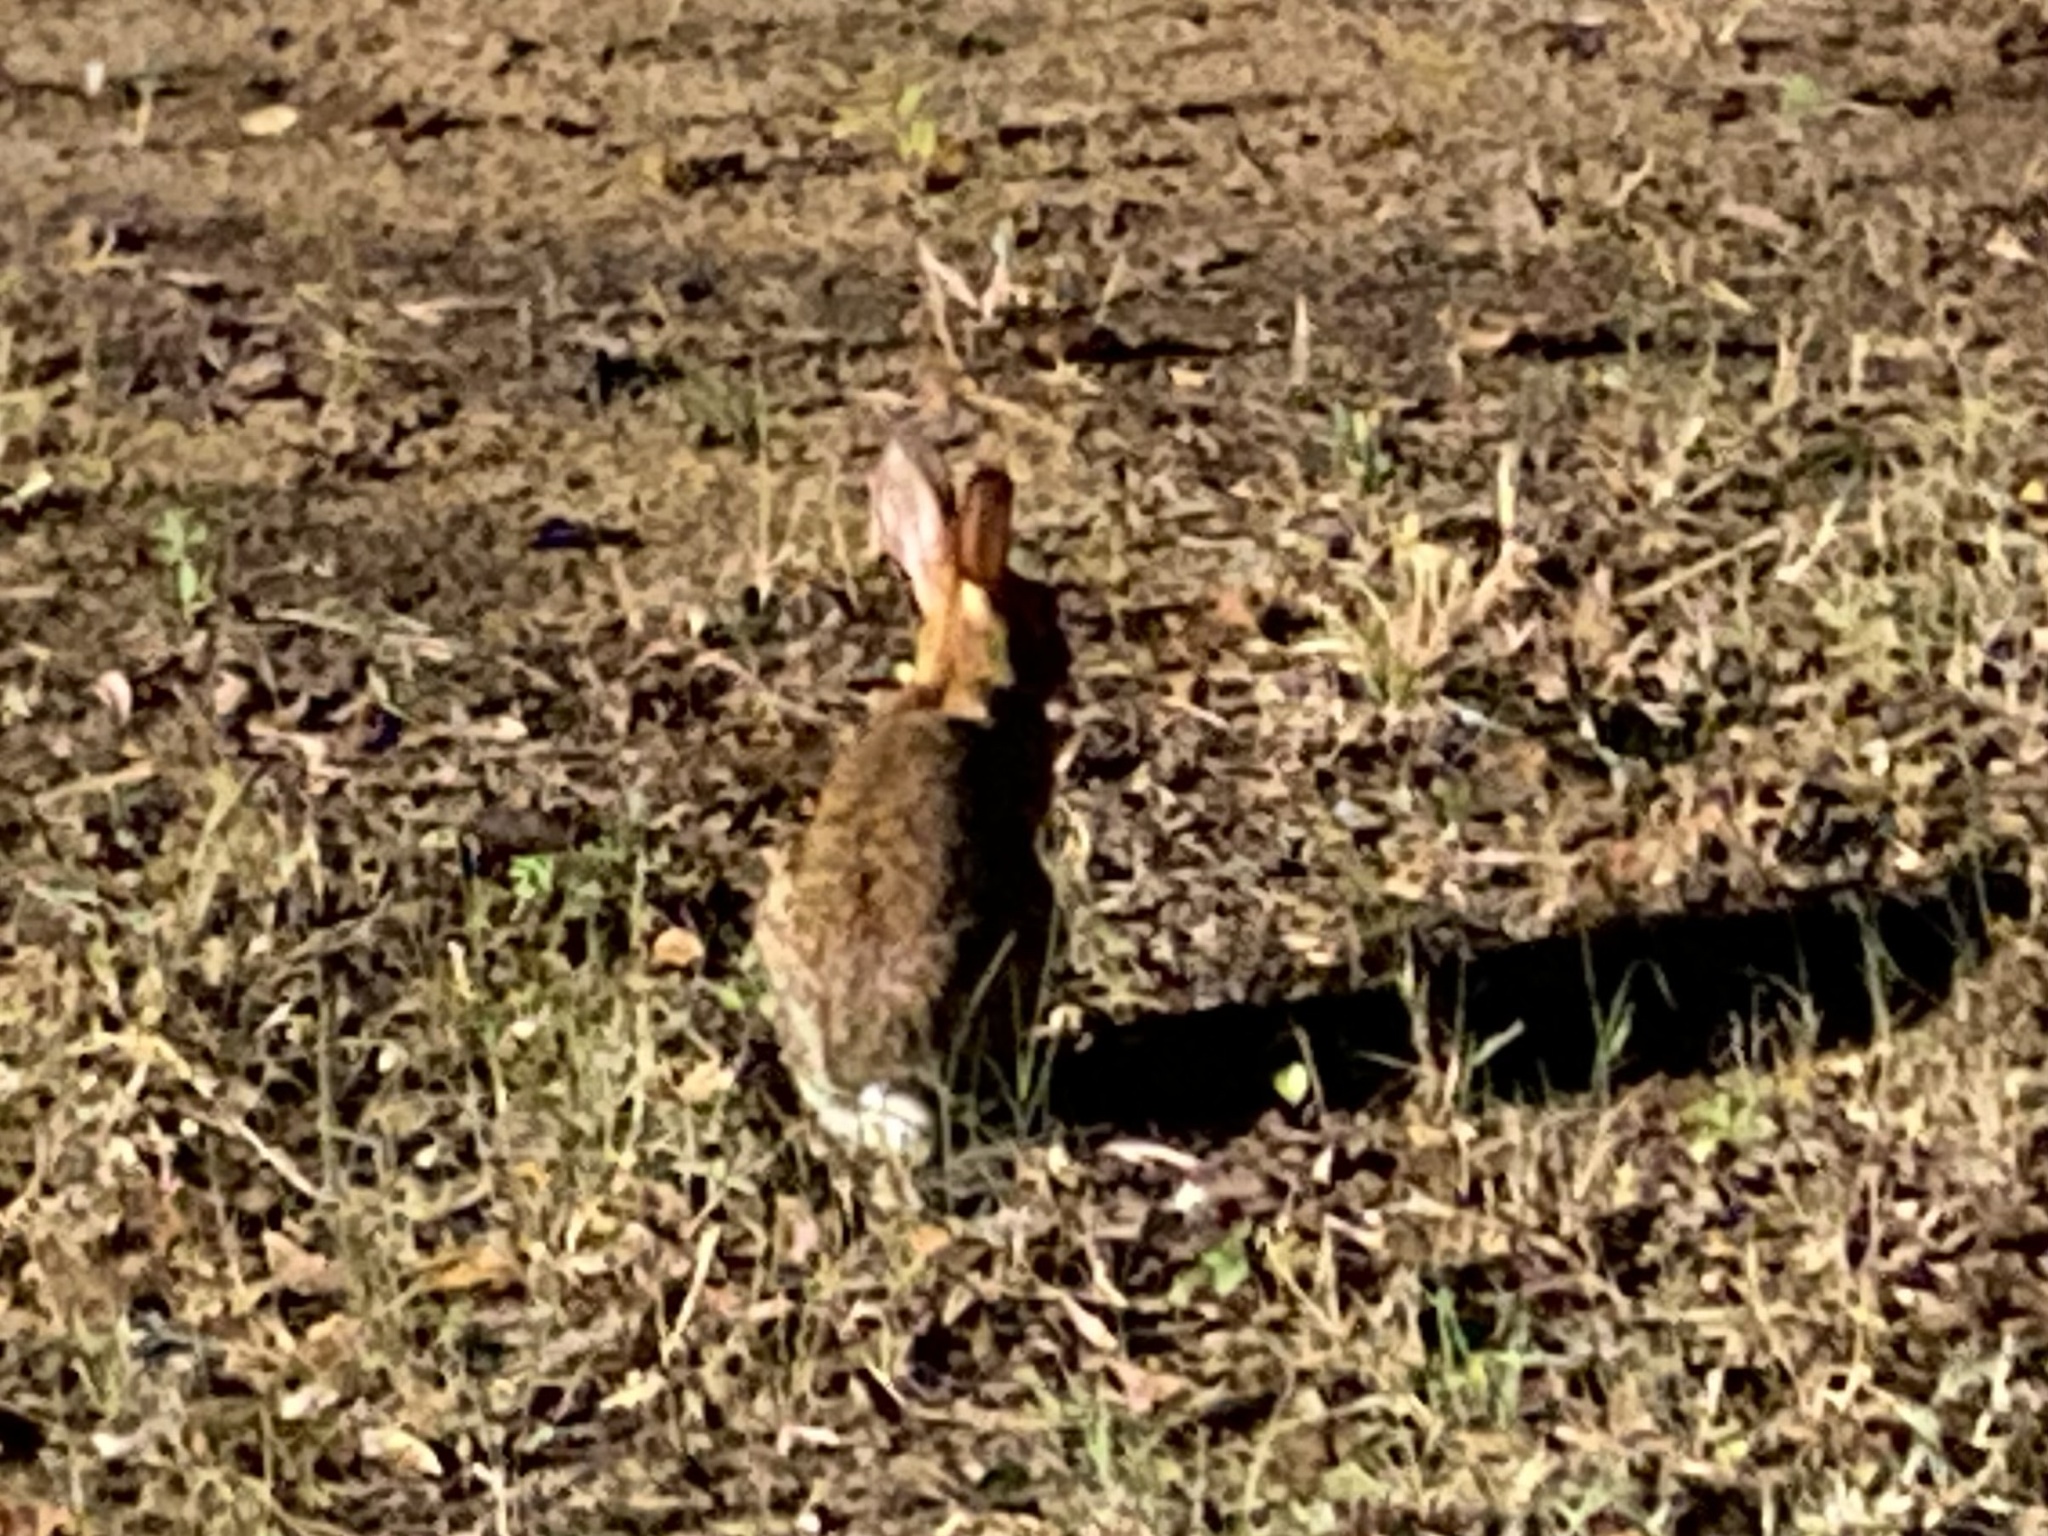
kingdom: Animalia
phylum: Chordata
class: Mammalia
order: Lagomorpha
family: Leporidae
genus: Sylvilagus
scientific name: Sylvilagus floridanus
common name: Eastern cottontail
